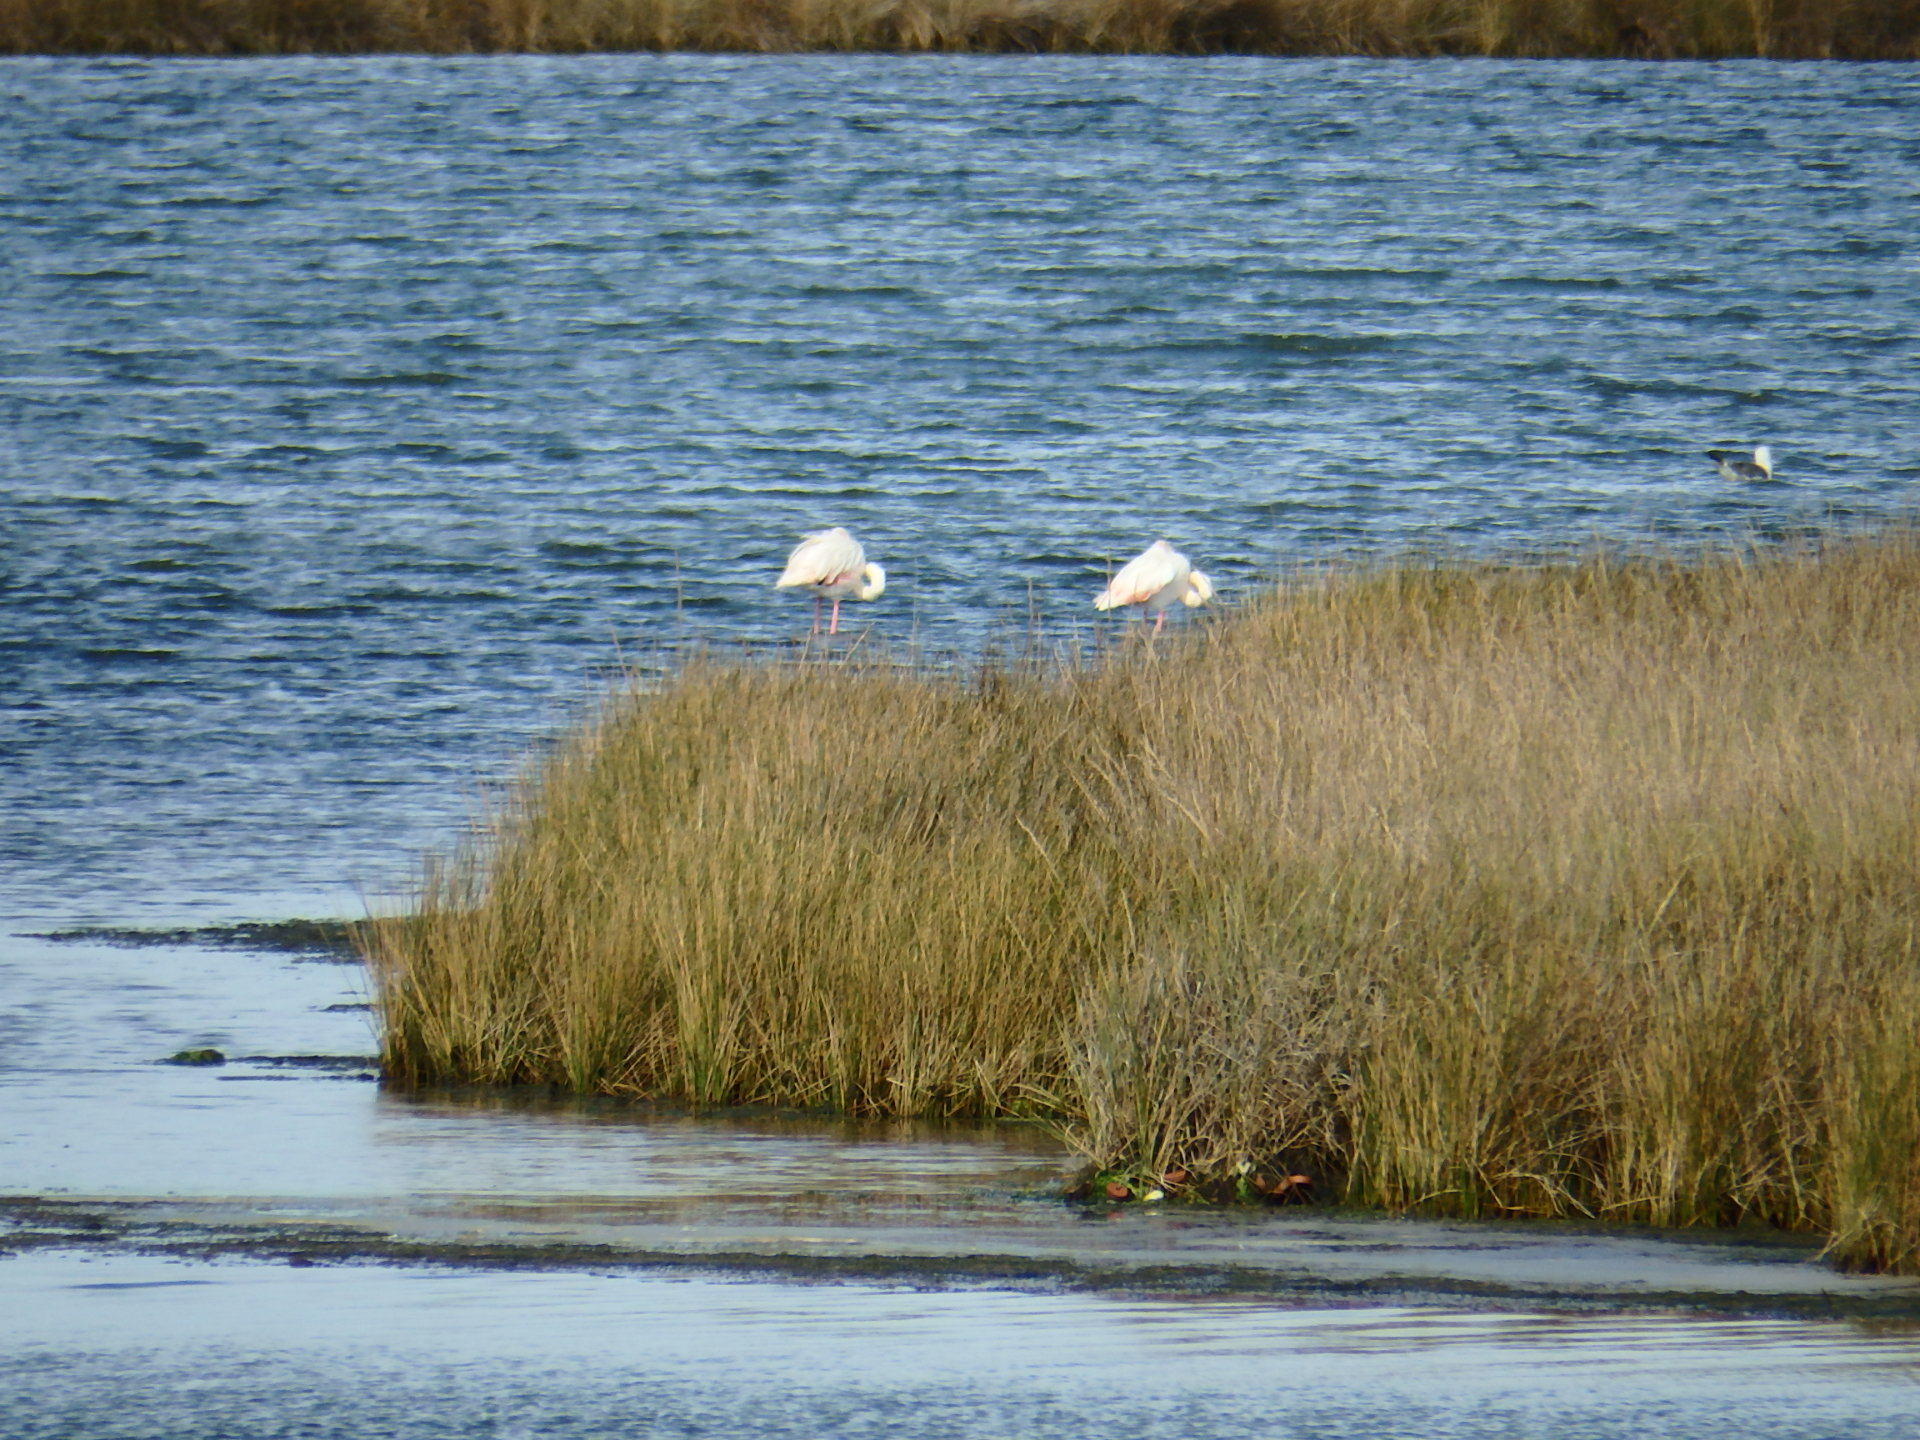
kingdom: Animalia
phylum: Chordata
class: Aves
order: Phoenicopteriformes
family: Phoenicopteridae
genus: Phoenicopterus
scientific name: Phoenicopterus roseus
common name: Greater flamingo
